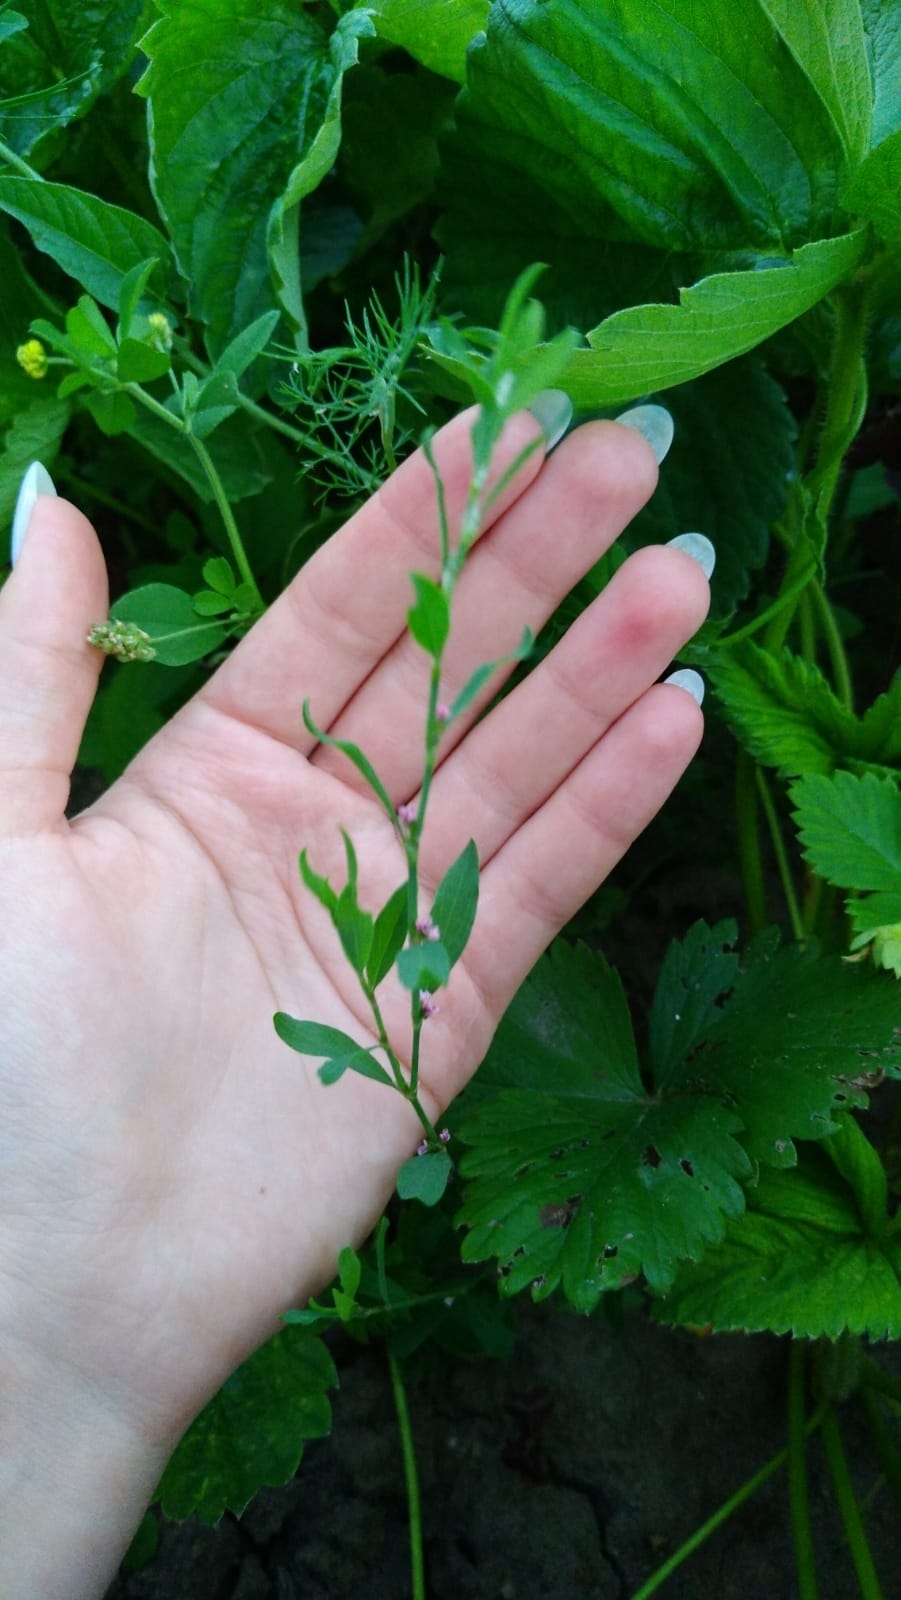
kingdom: Plantae
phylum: Tracheophyta
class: Magnoliopsida
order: Caryophyllales
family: Polygonaceae
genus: Polygonum
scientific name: Polygonum
